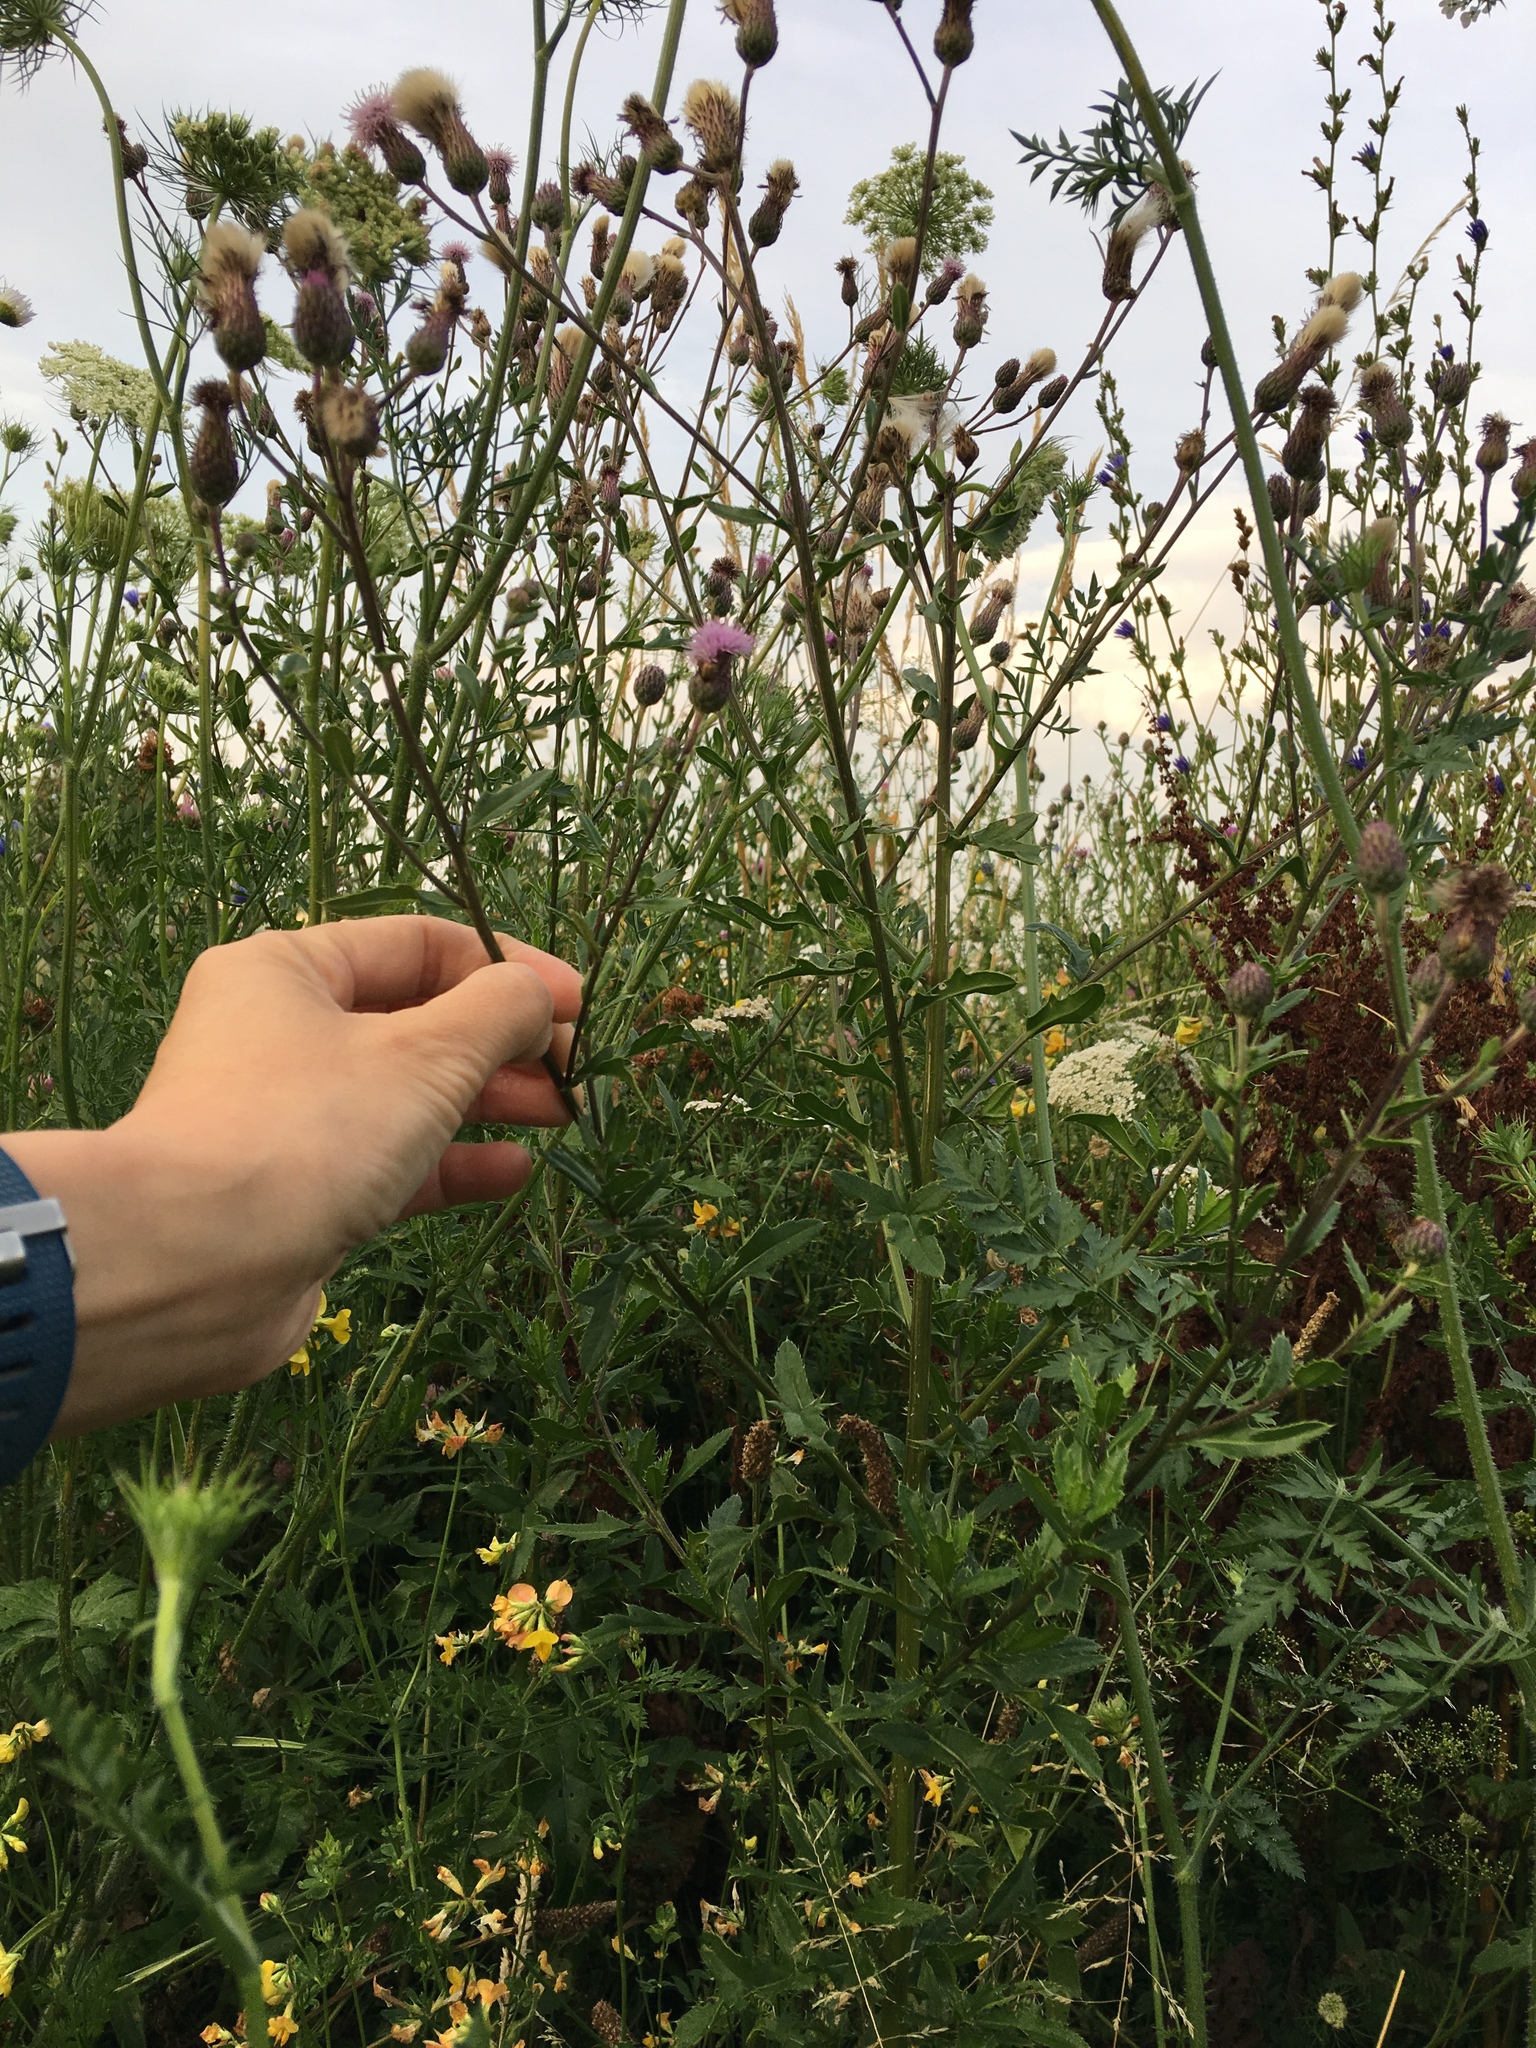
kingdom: Plantae
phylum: Tracheophyta
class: Magnoliopsida
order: Asterales
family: Asteraceae
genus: Cirsium
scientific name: Cirsium arvense
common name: Creeping thistle
